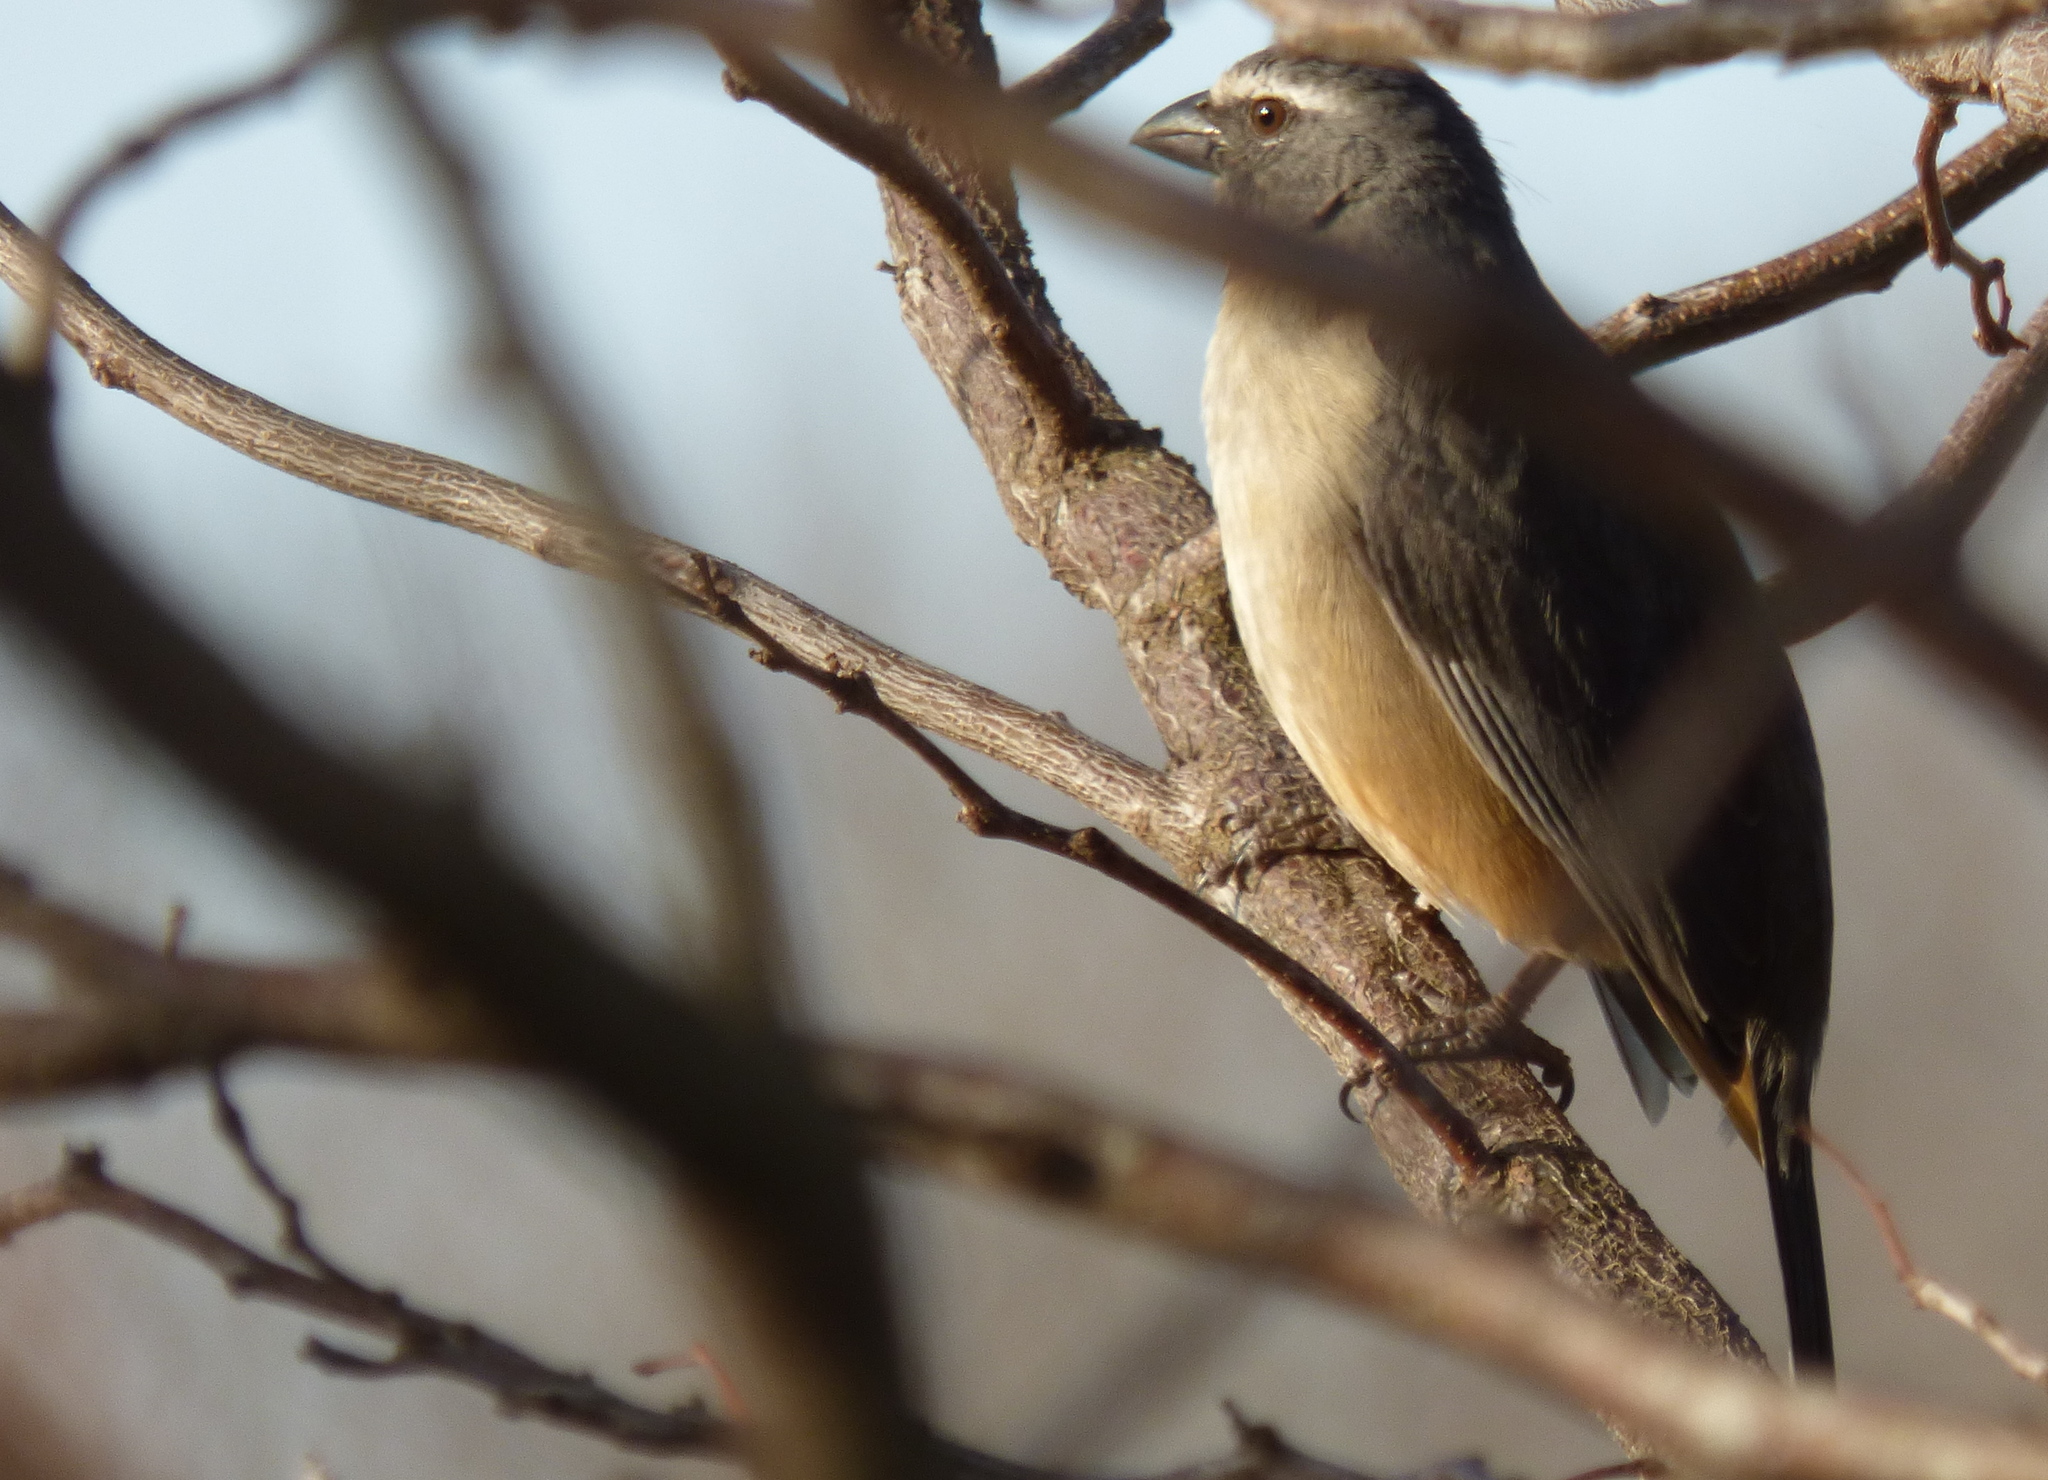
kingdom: Animalia
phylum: Chordata
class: Aves
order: Passeriformes
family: Thraupidae
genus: Saltator
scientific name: Saltator coerulescens
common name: Grayish saltator
